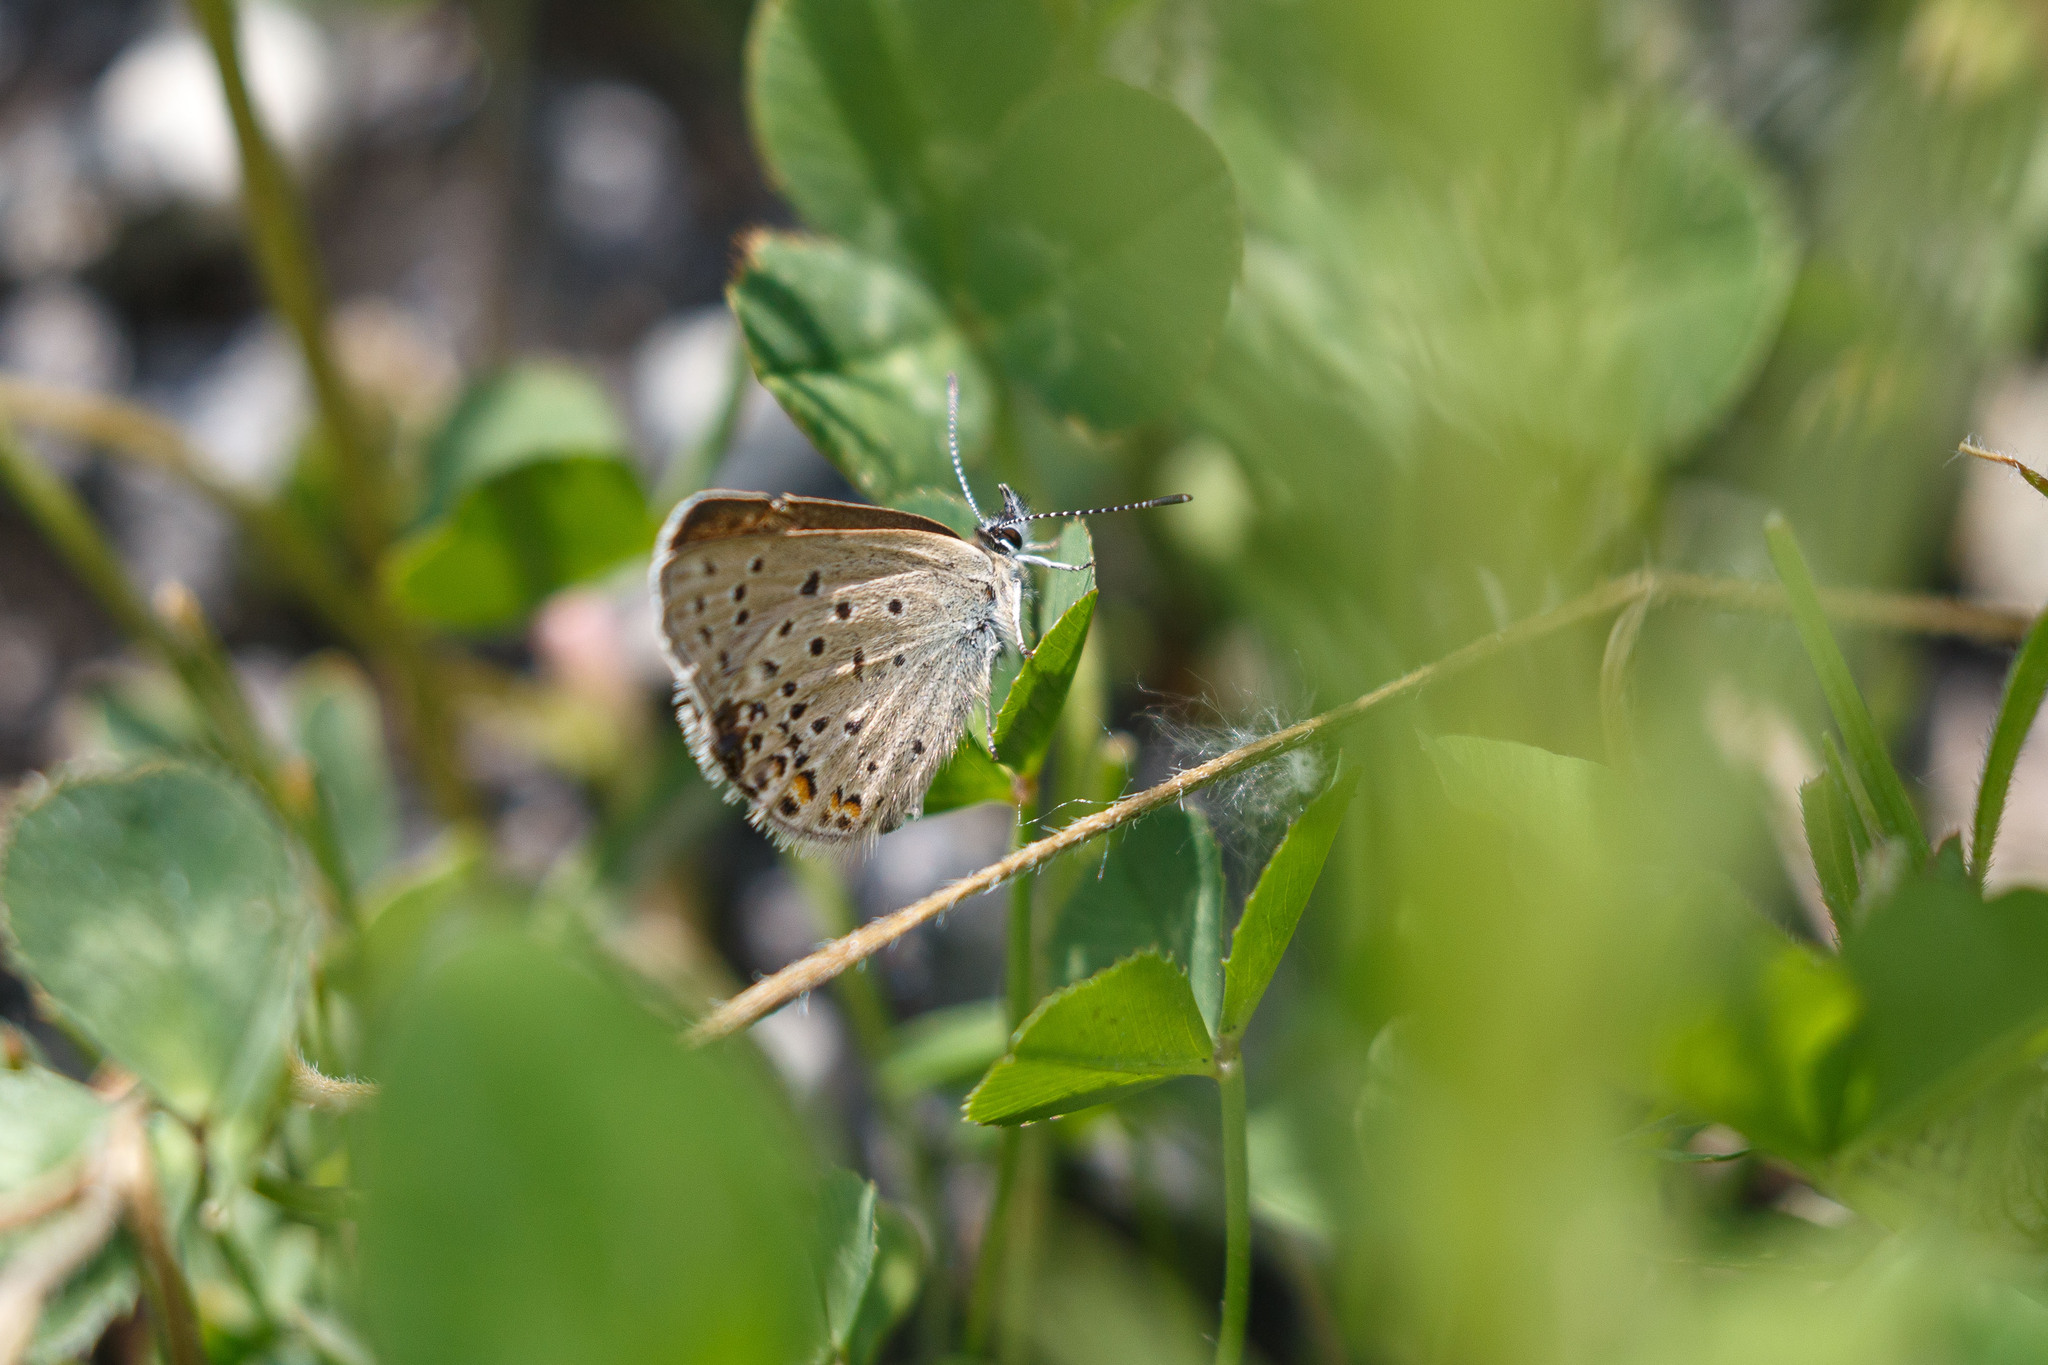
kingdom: Animalia
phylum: Arthropoda
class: Insecta
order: Lepidoptera
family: Lycaenidae
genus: Icaricia
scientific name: Icaricia saepiolus
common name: Greenish blue
